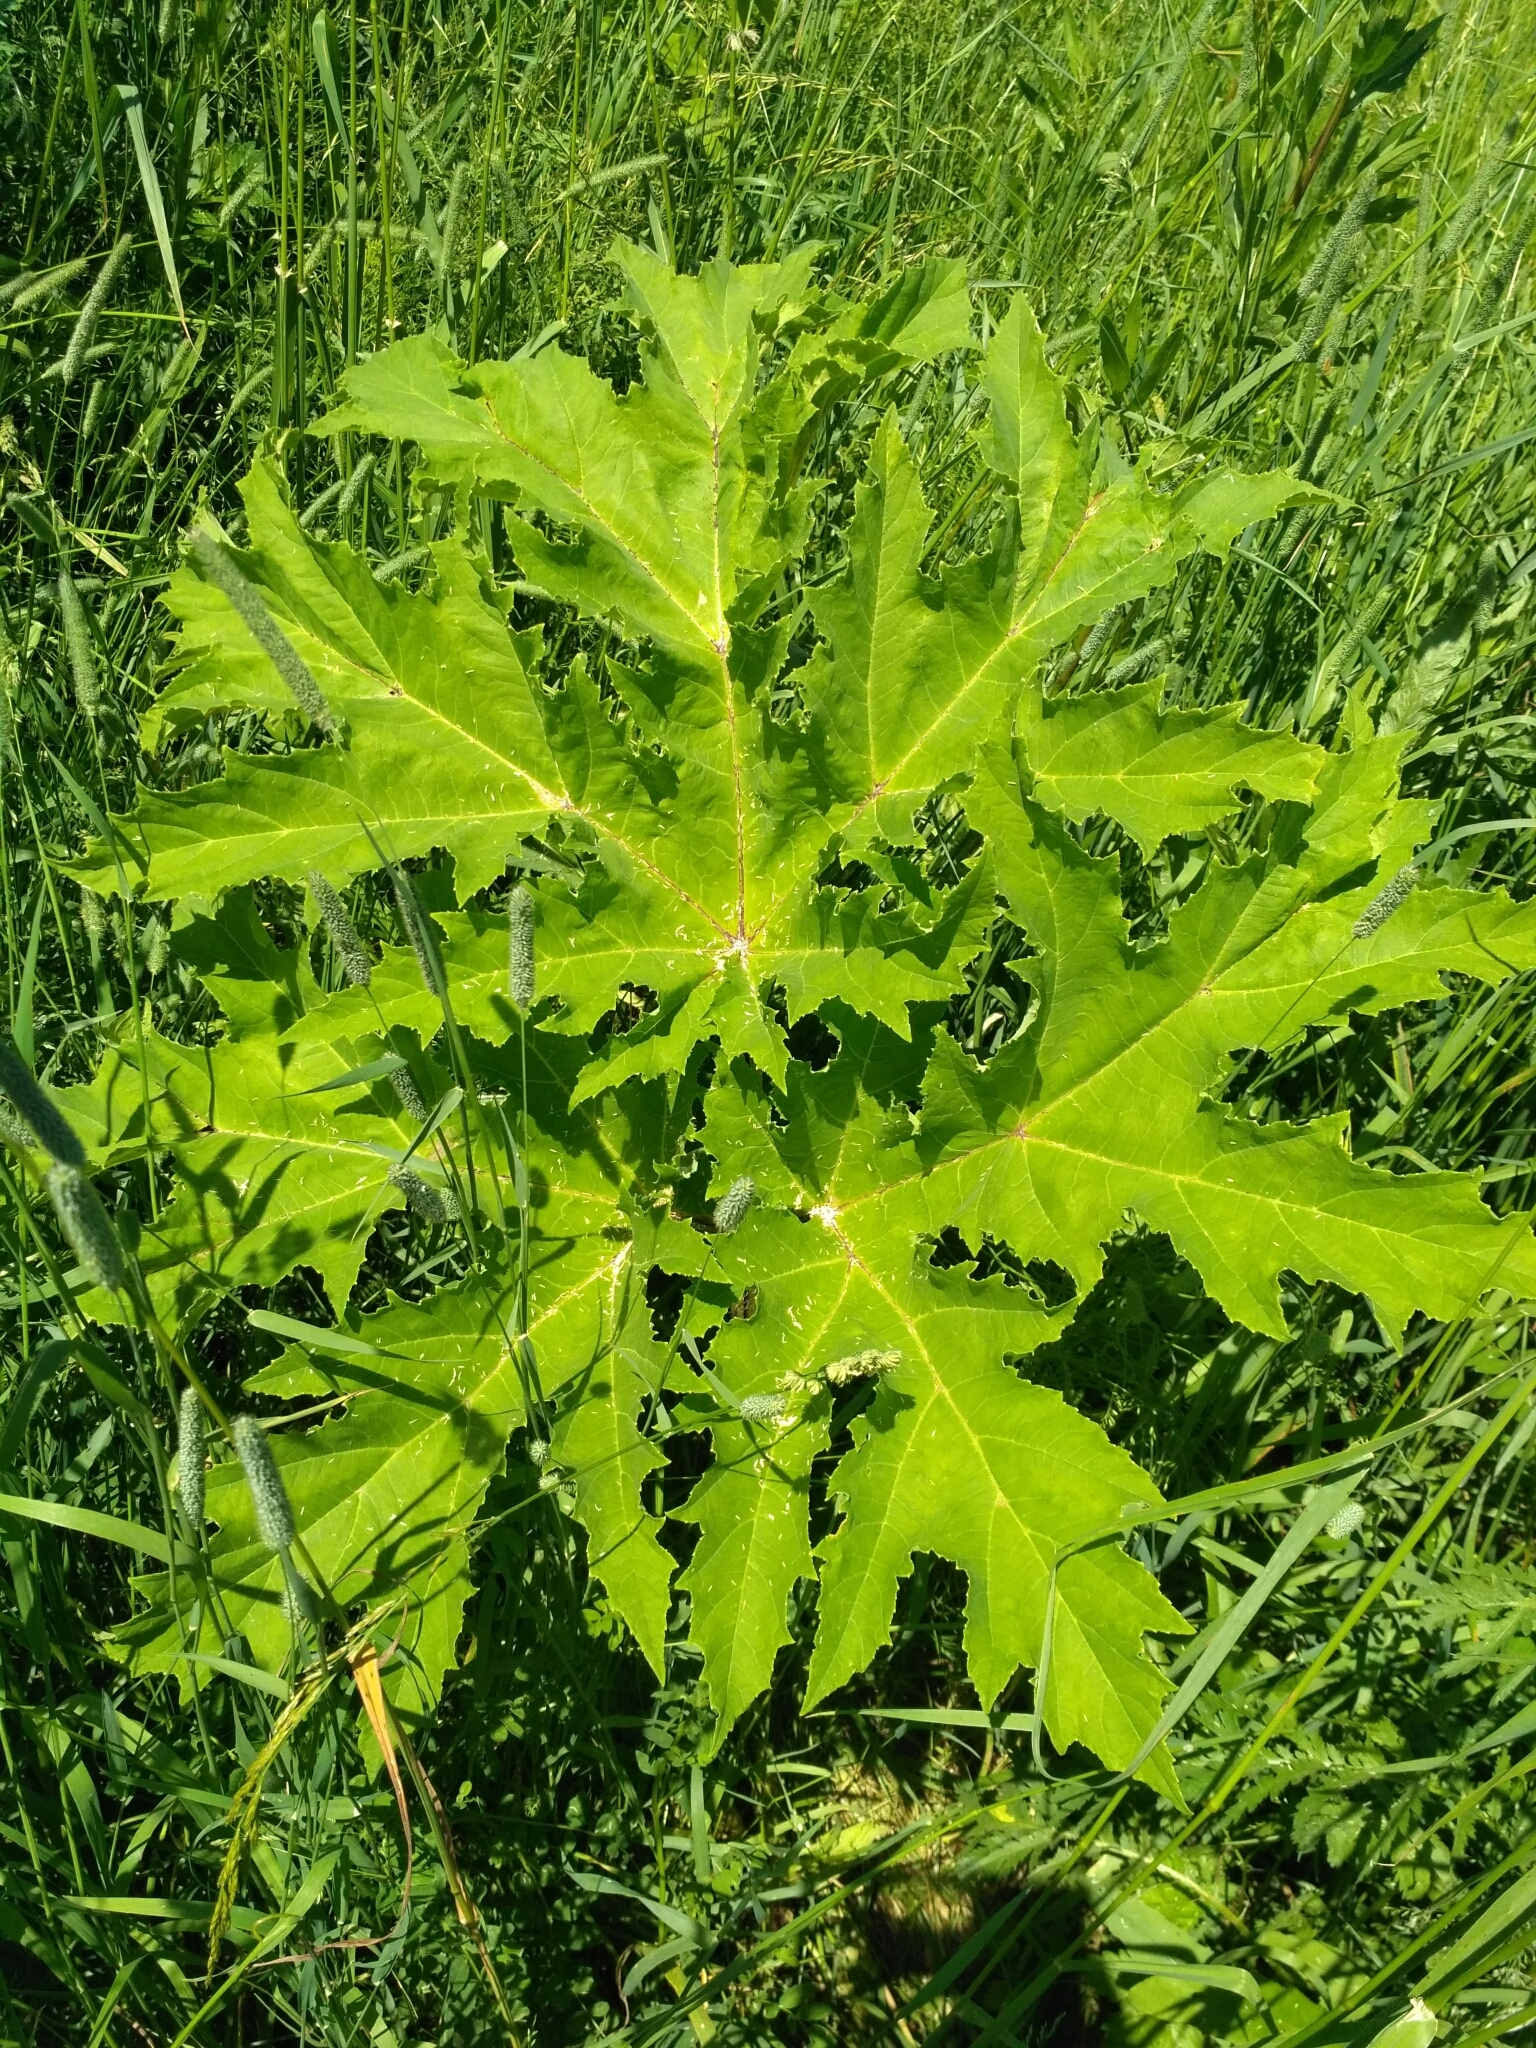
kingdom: Plantae
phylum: Tracheophyta
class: Magnoliopsida
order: Apiales
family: Apiaceae
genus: Heracleum
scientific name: Heracleum sosnowskyi
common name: Sosnowsky's hogweed
